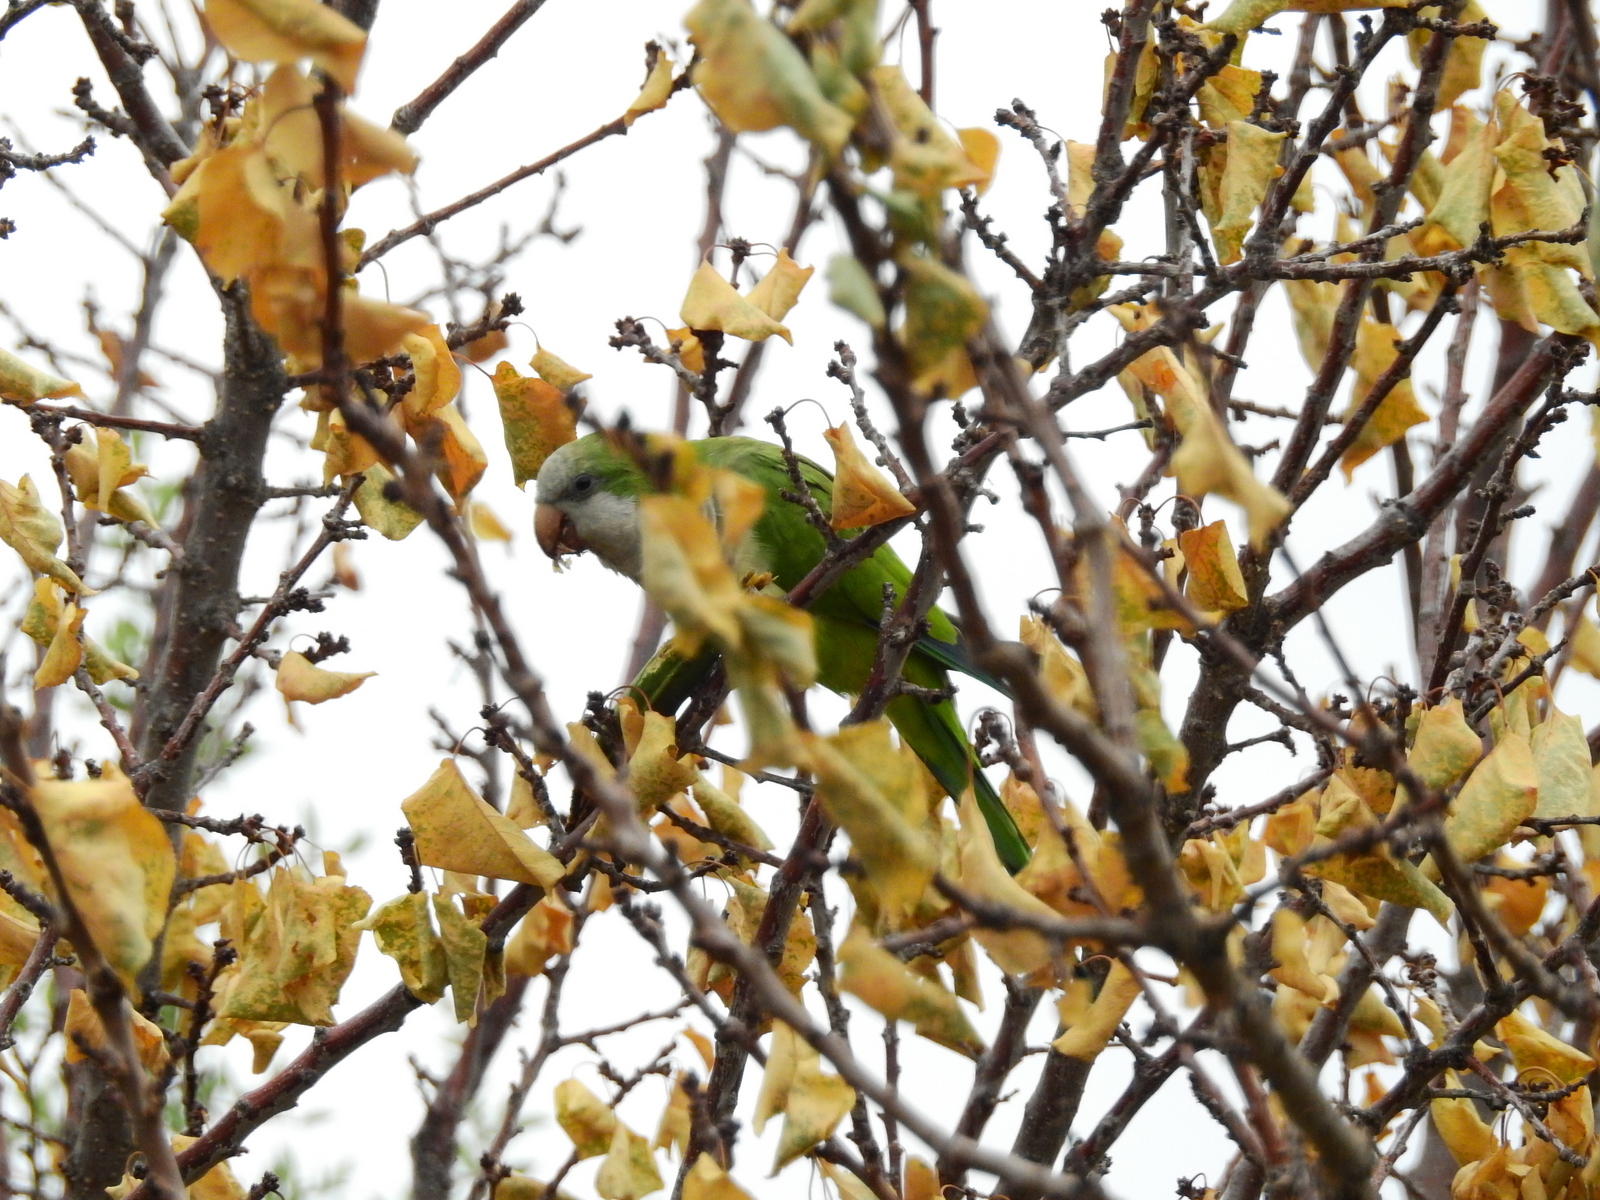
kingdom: Animalia
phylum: Chordata
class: Aves
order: Psittaciformes
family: Psittacidae
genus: Myiopsitta
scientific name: Myiopsitta monachus
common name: Monk parakeet
